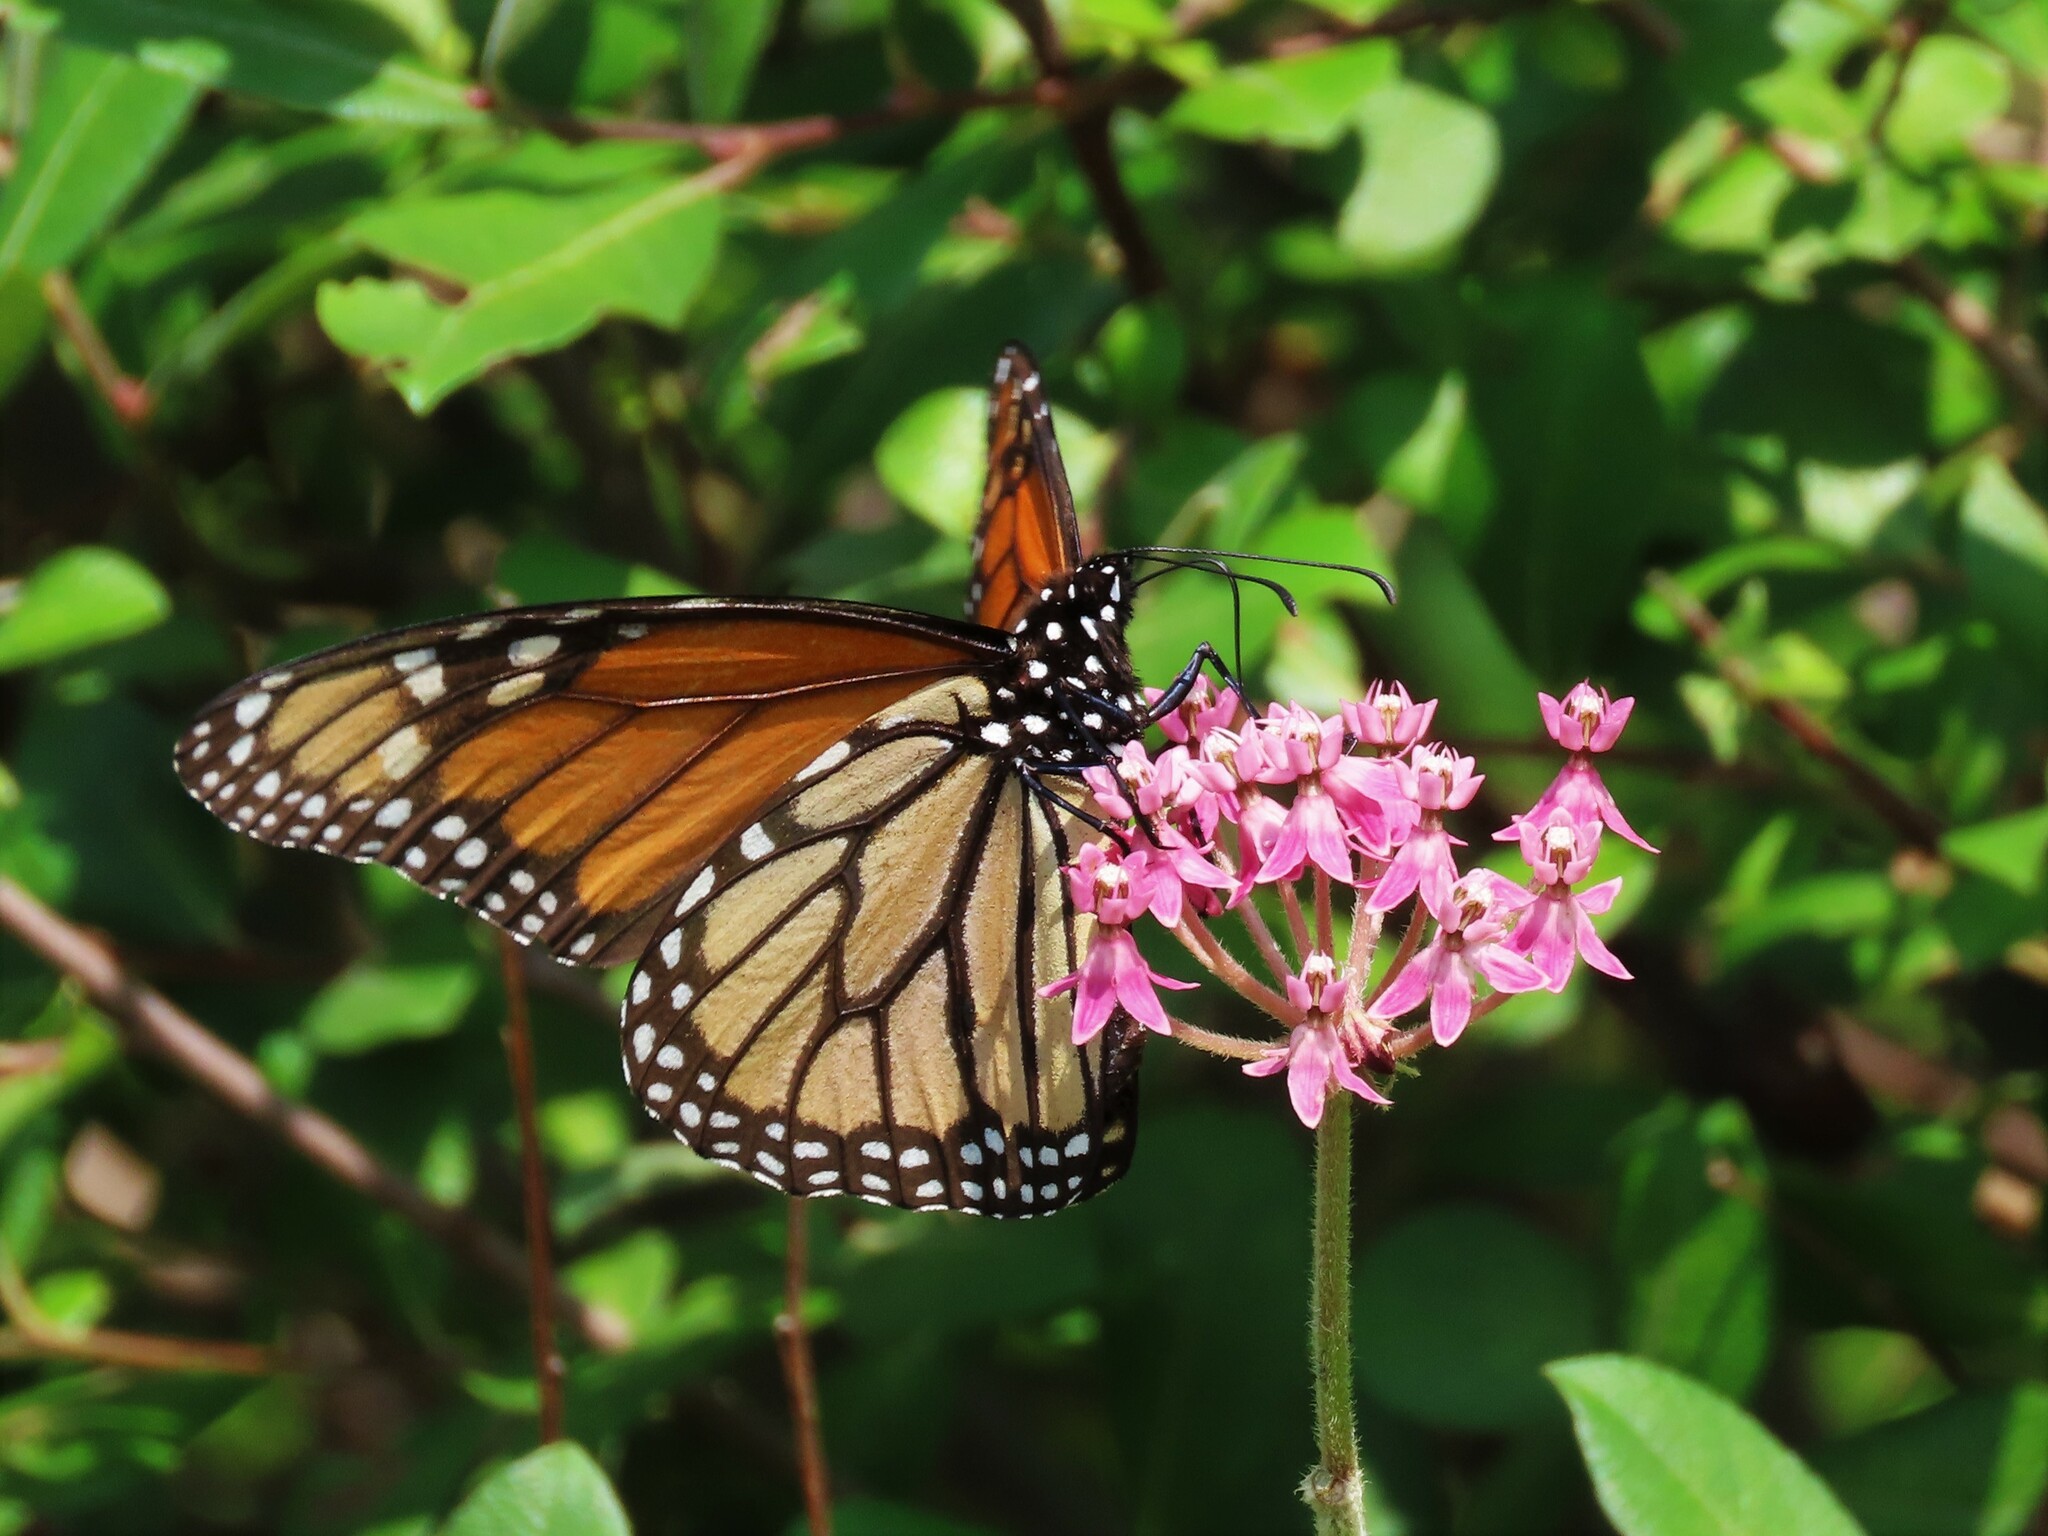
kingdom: Animalia
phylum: Arthropoda
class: Insecta
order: Lepidoptera
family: Nymphalidae
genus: Danaus
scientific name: Danaus plexippus
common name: Monarch
